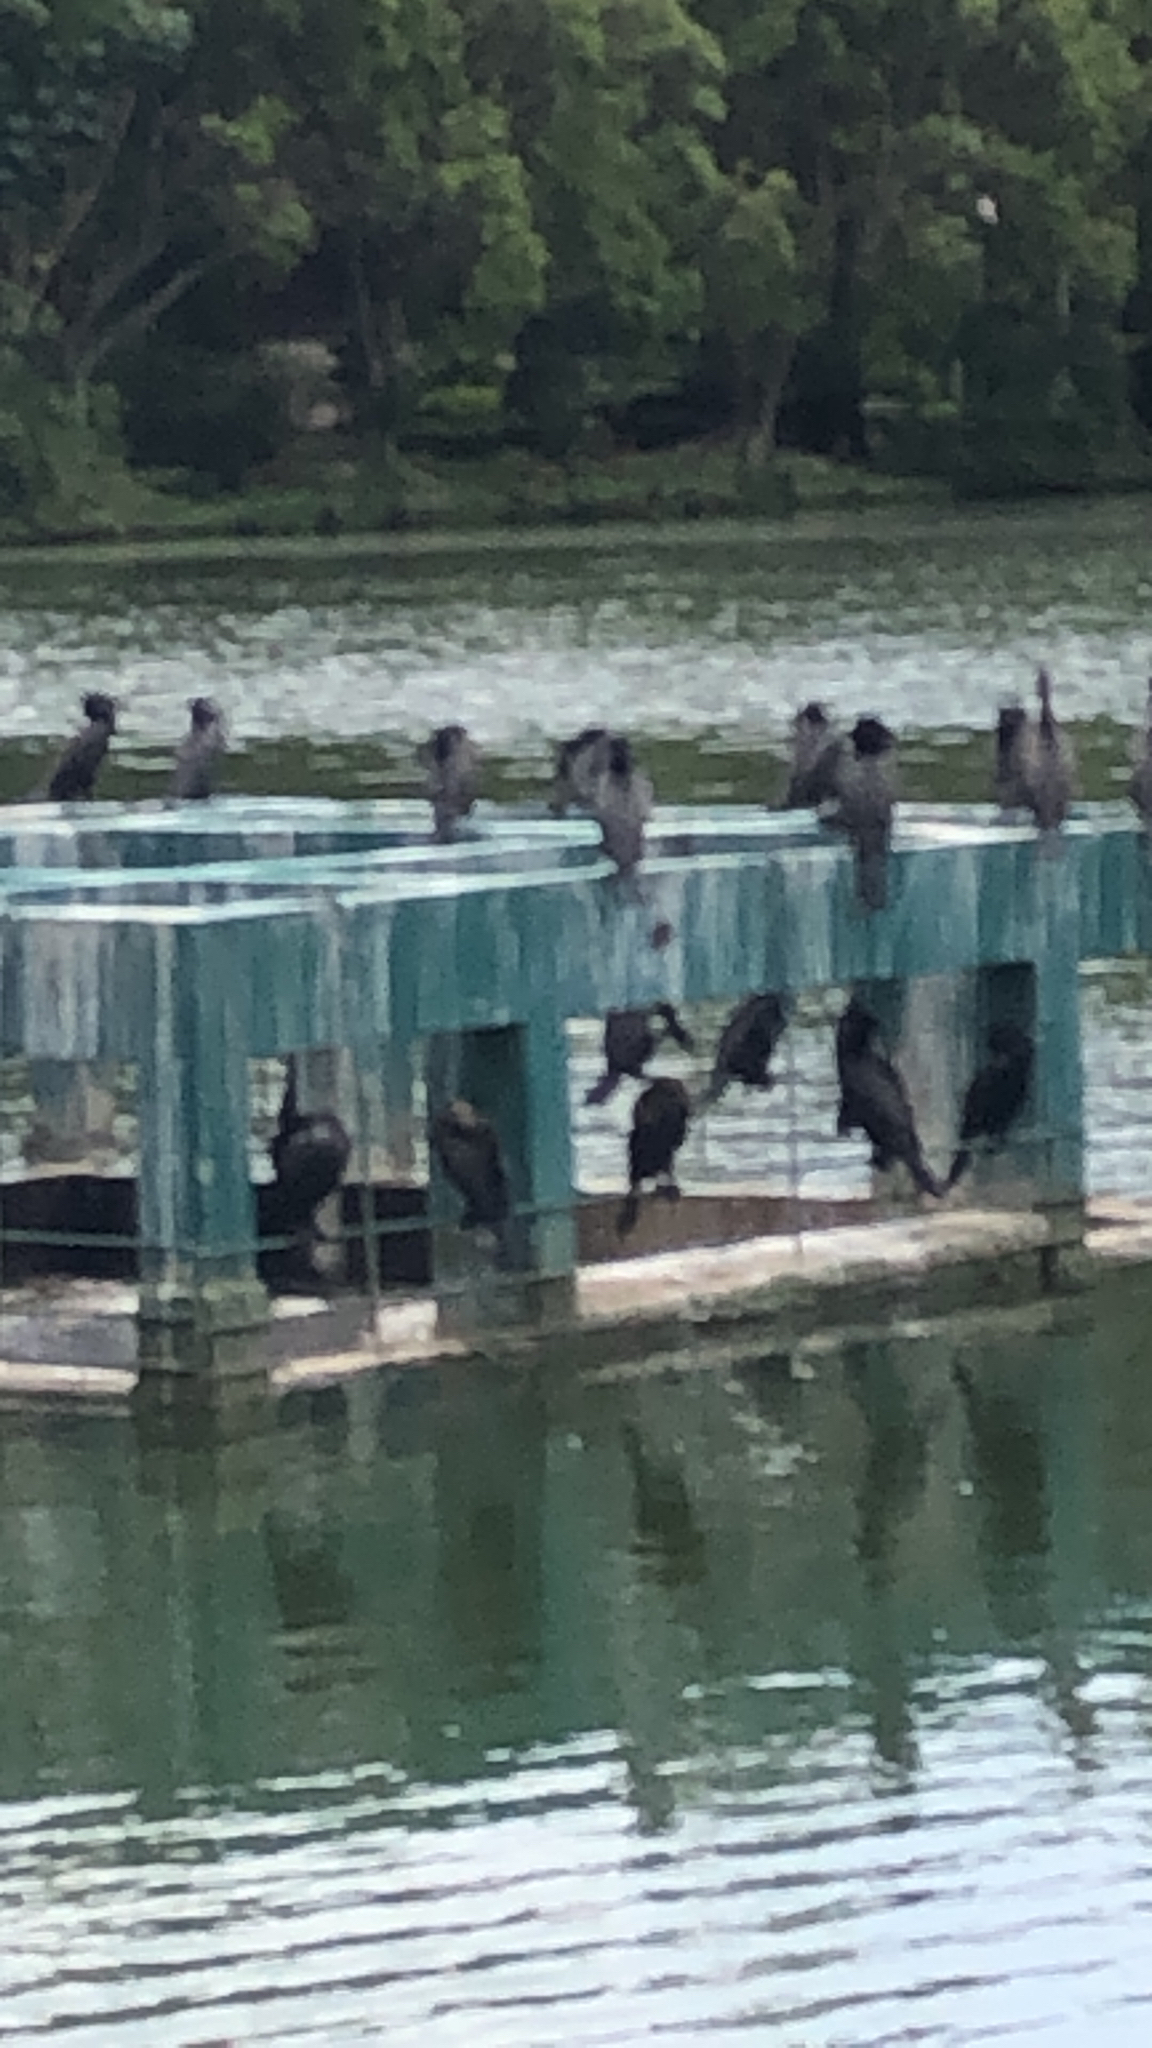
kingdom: Animalia
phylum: Chordata
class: Aves
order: Suliformes
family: Phalacrocoracidae
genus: Phalacrocorax
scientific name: Phalacrocorax brasilianus
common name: Neotropic cormorant
